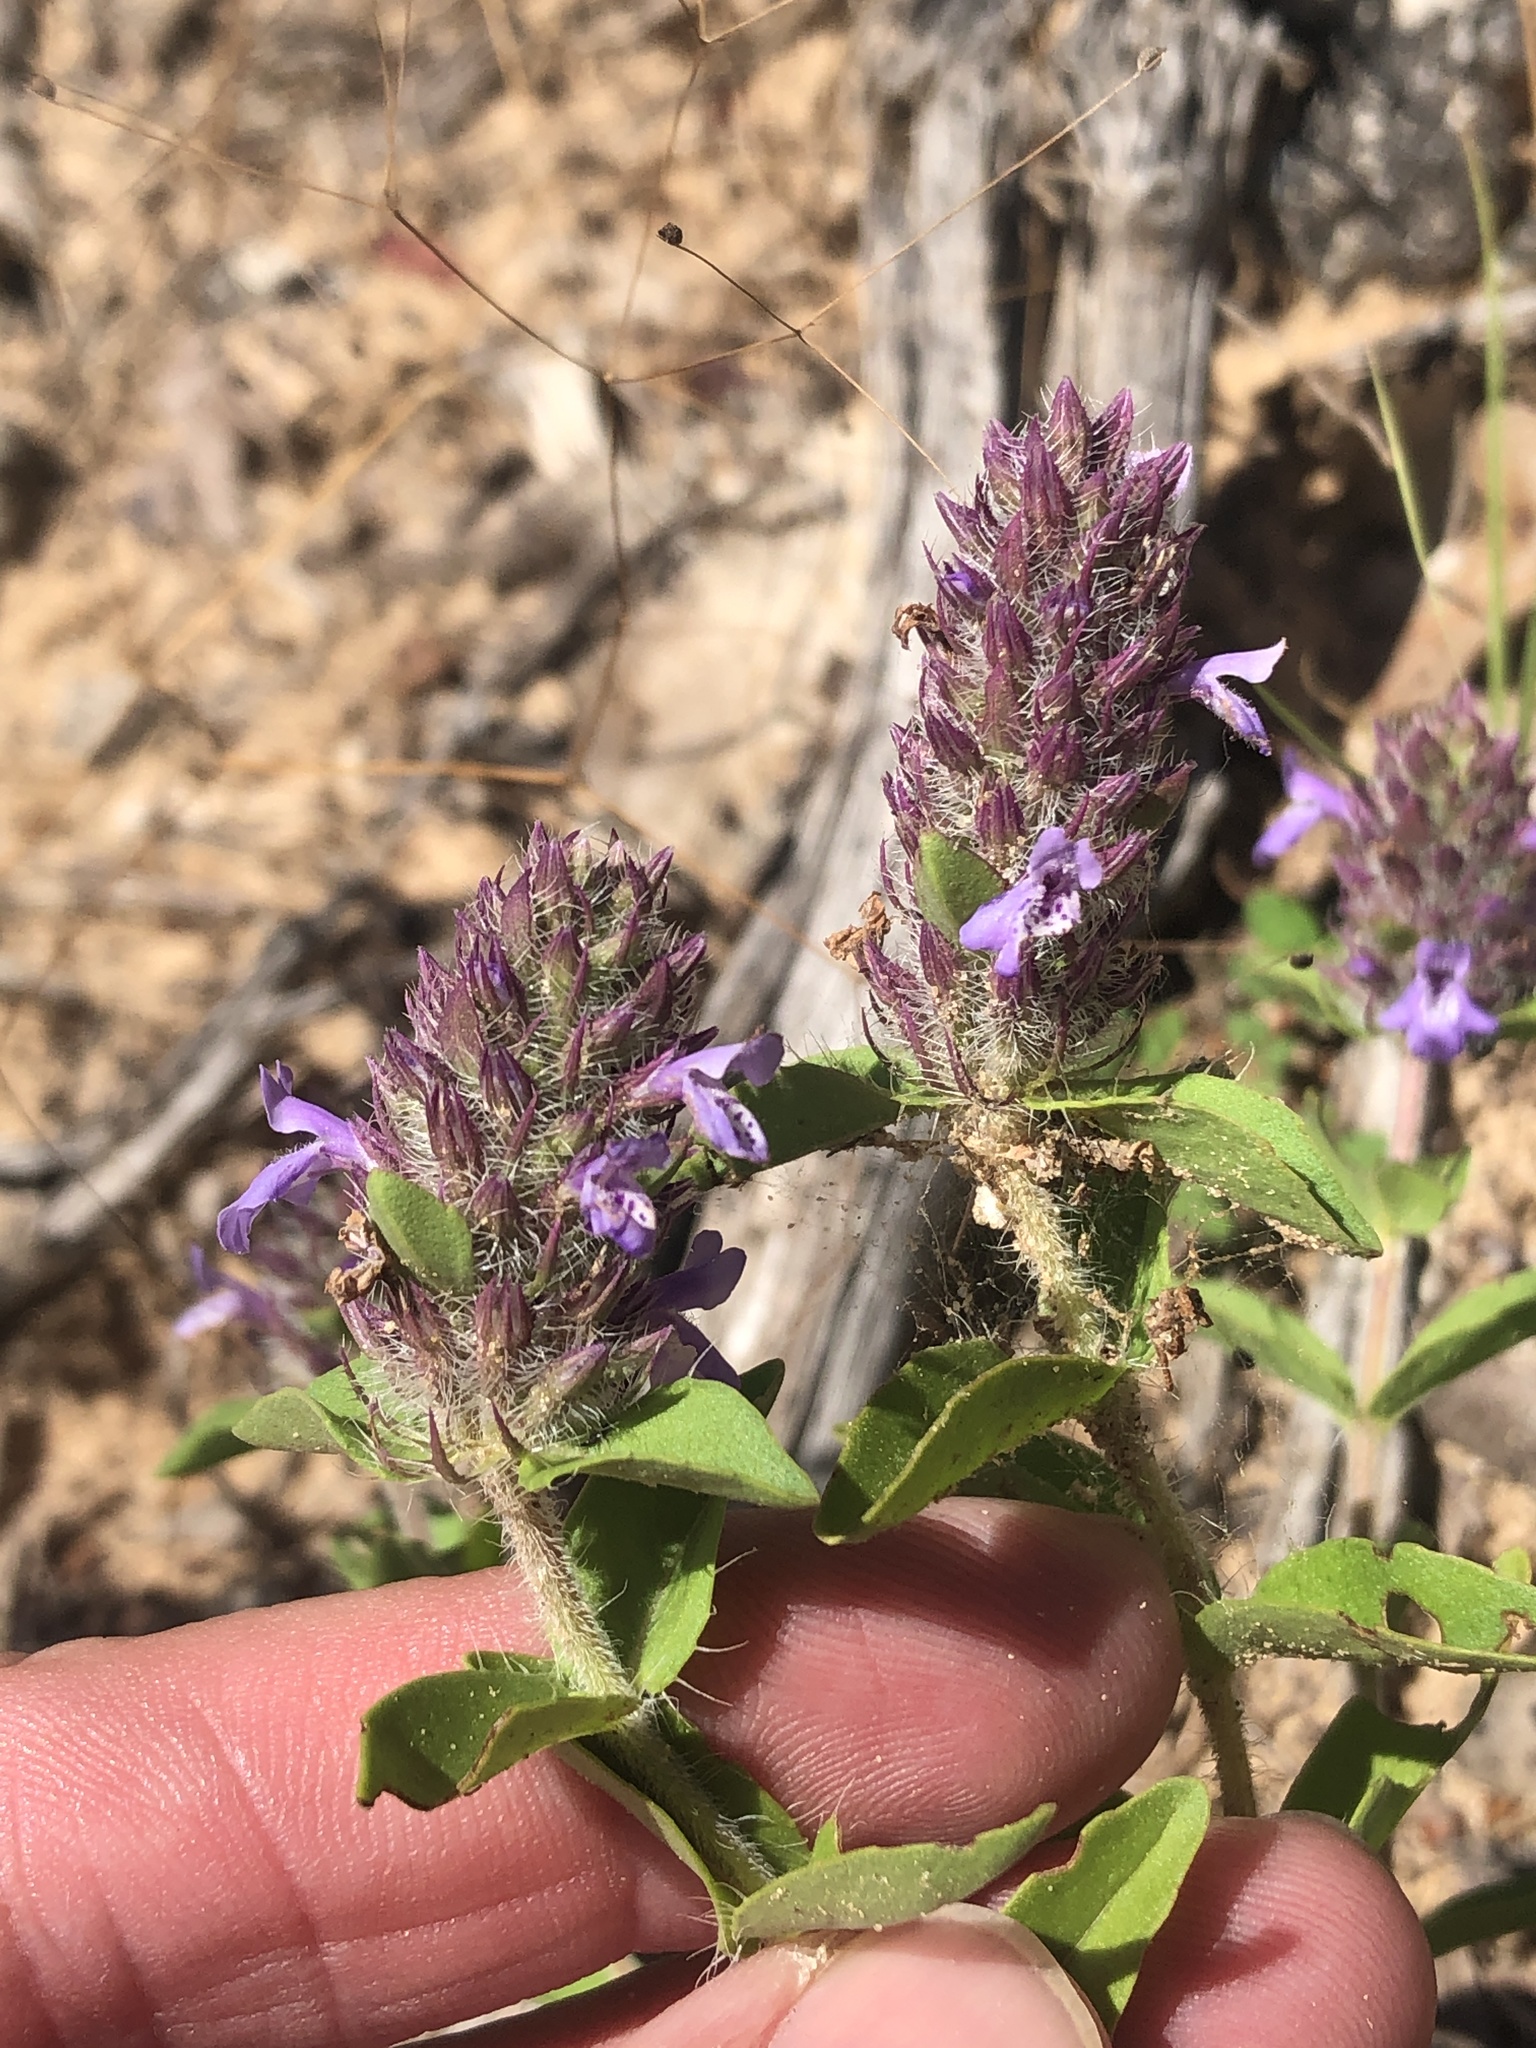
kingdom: Plantae
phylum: Tracheophyta
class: Magnoliopsida
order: Lamiales
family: Lamiaceae
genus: Rhododon
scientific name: Rhododon ciliatus
